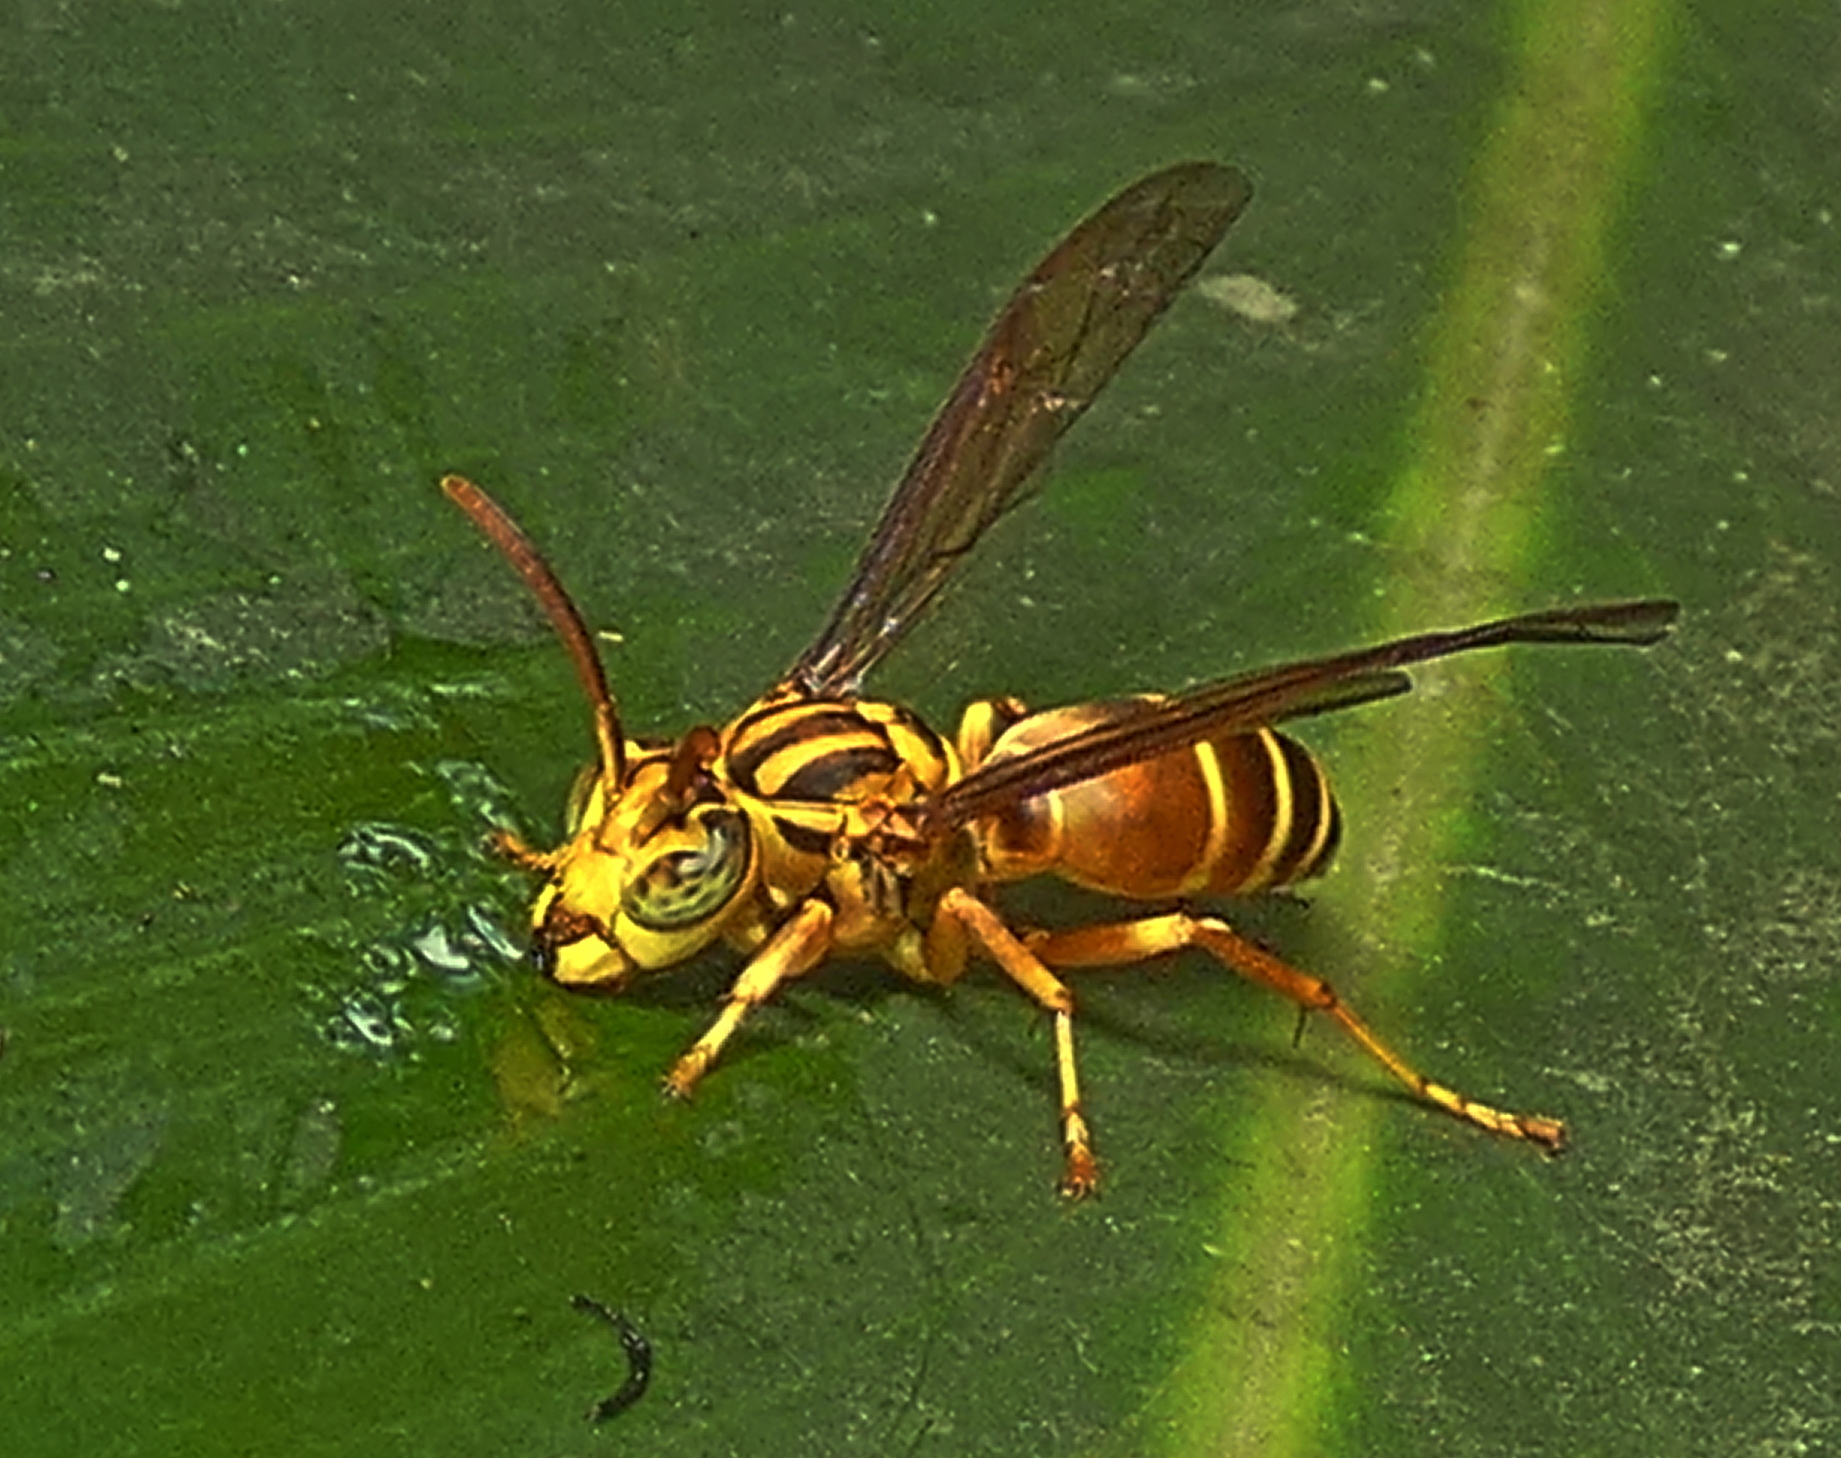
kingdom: Animalia
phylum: Arthropoda
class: Insecta
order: Hymenoptera
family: Vespidae
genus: Parachartergus
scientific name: Parachartergus vespiceps
